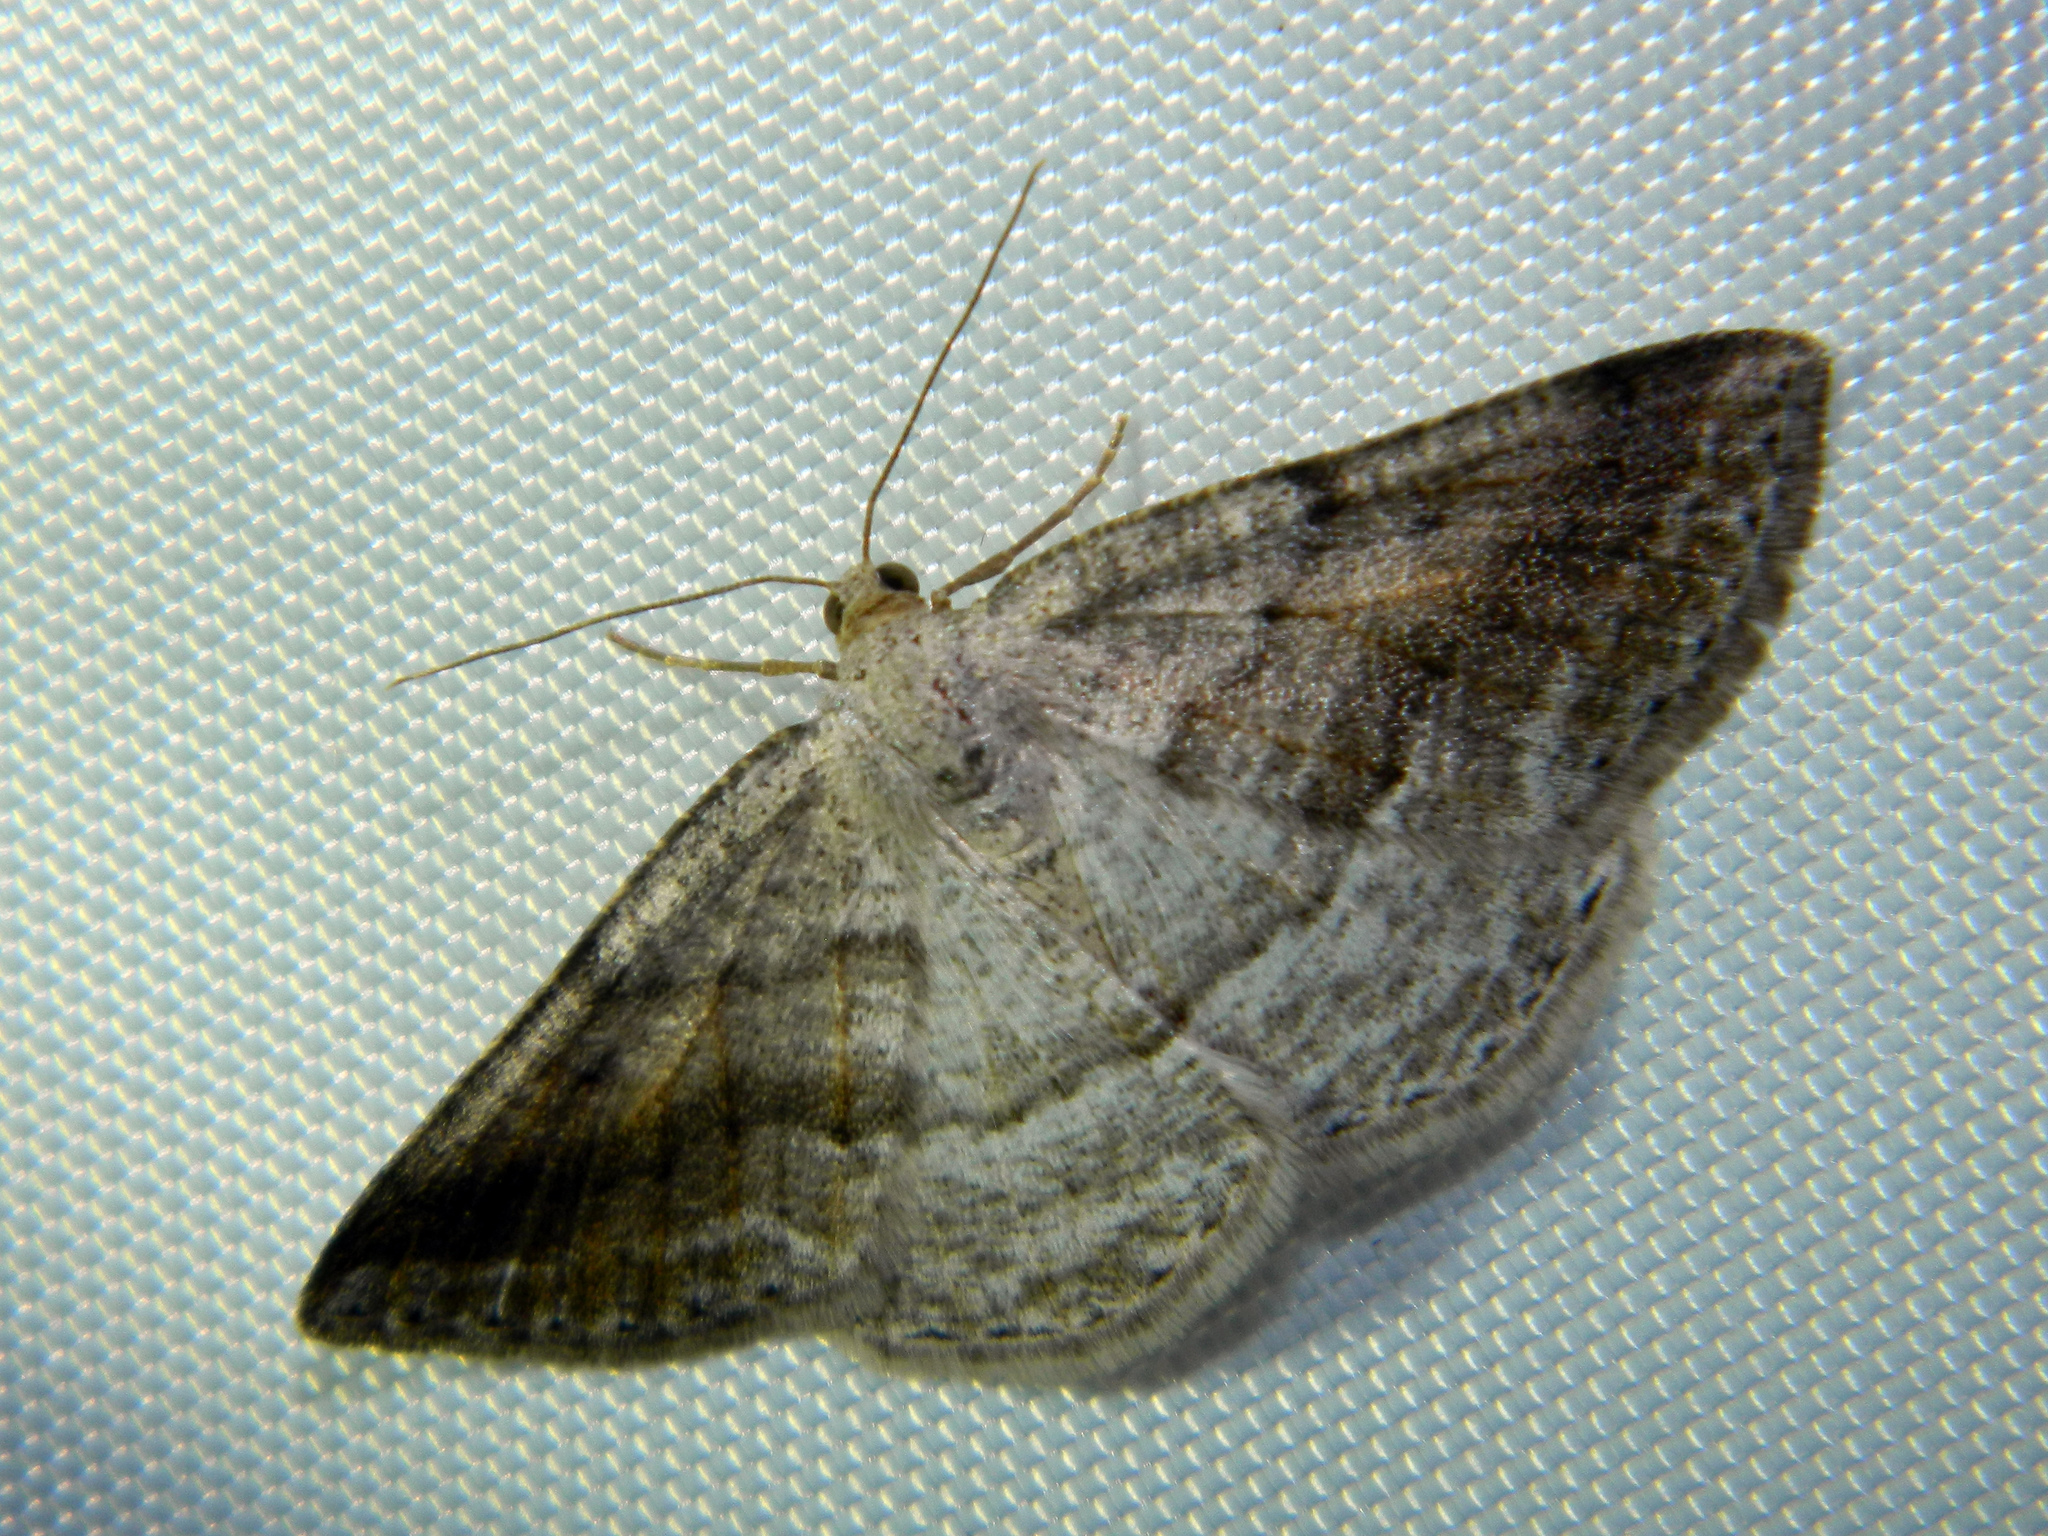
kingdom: Animalia
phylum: Arthropoda
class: Insecta
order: Lepidoptera
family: Geometridae
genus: Tacparia
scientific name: Tacparia detersata
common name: Pale alder moth
